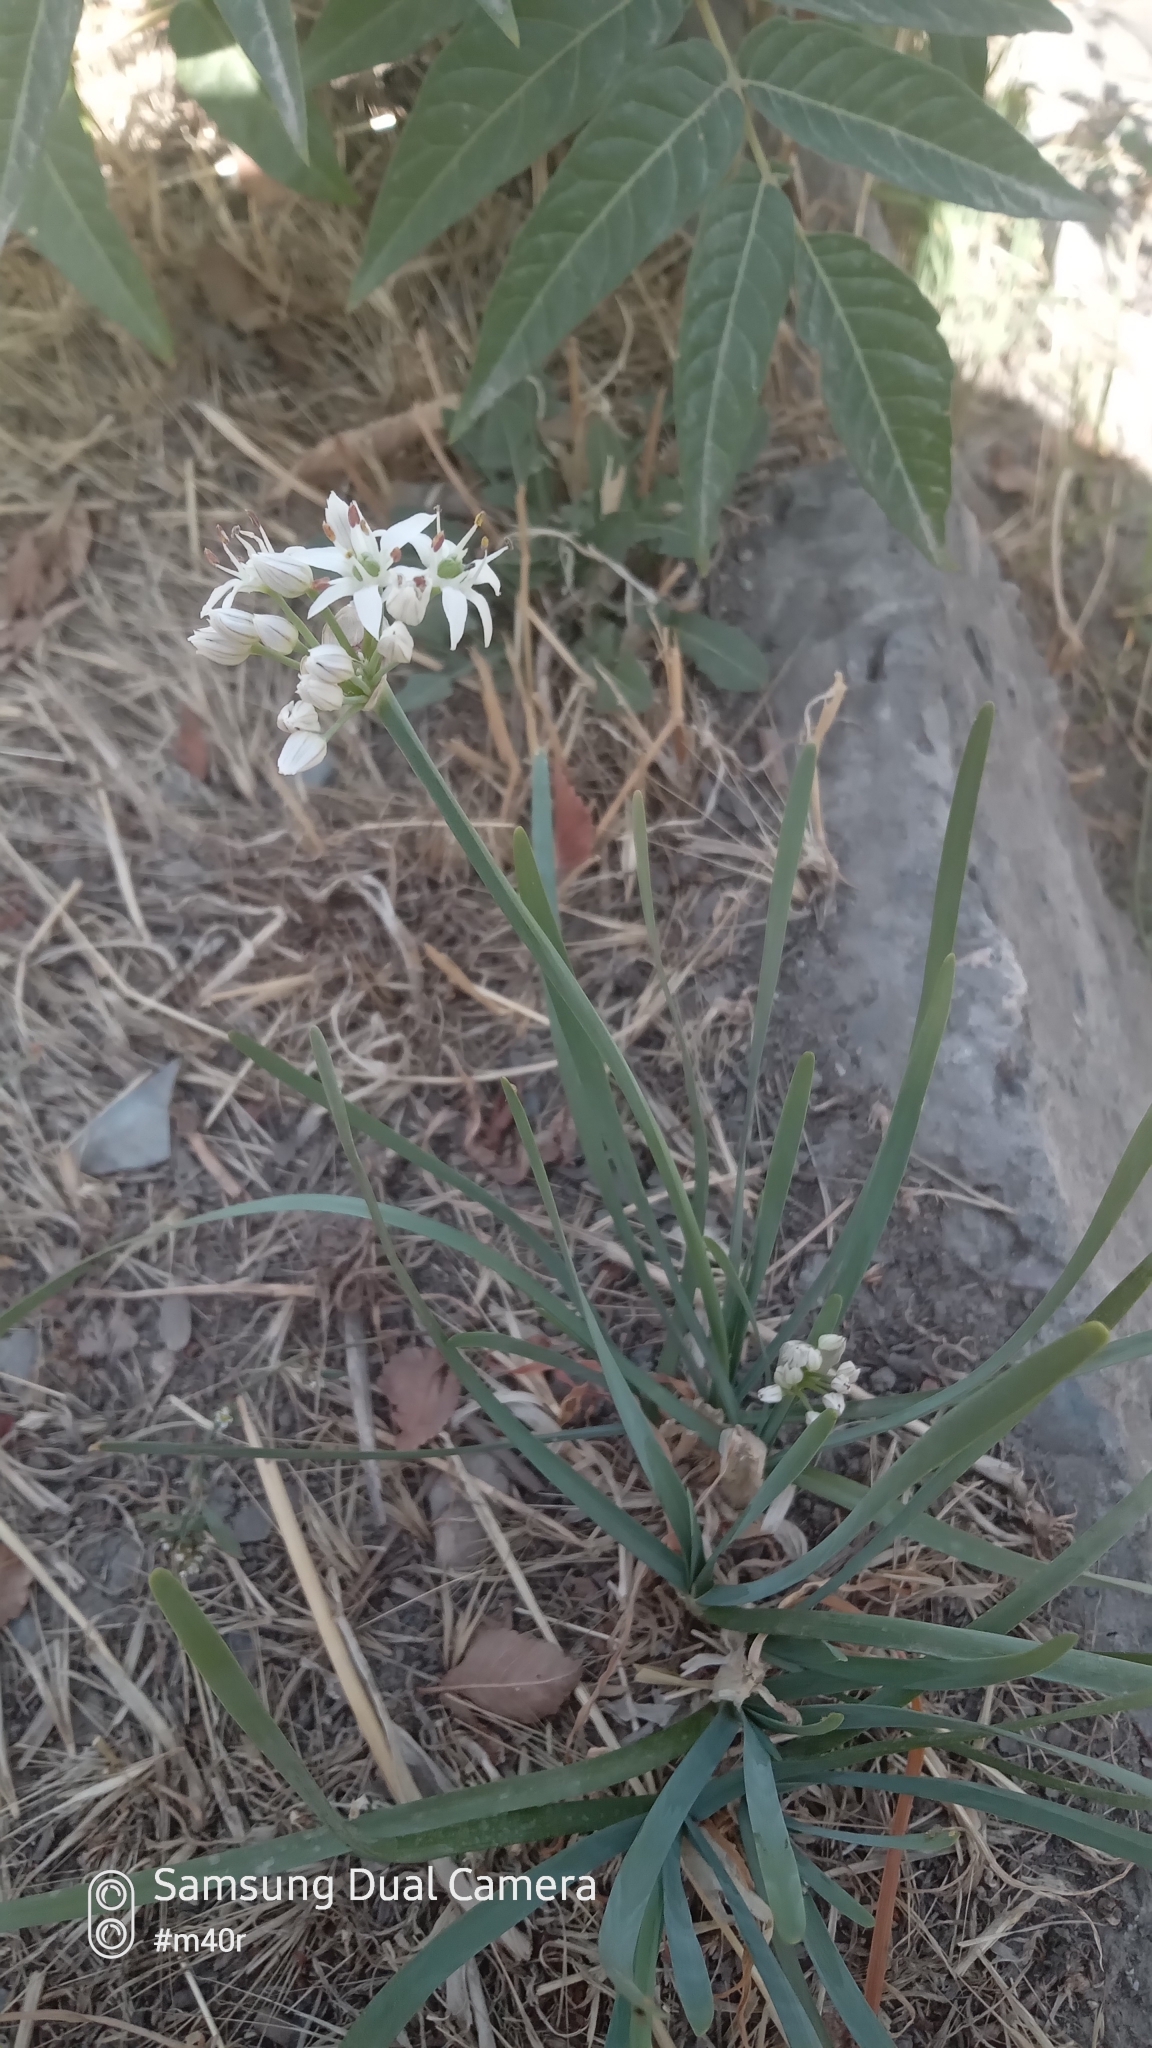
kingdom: Plantae
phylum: Tracheophyta
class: Liliopsida
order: Asparagales
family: Amaryllidaceae
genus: Allium
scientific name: Allium ramosum
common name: Fragrant garlic
